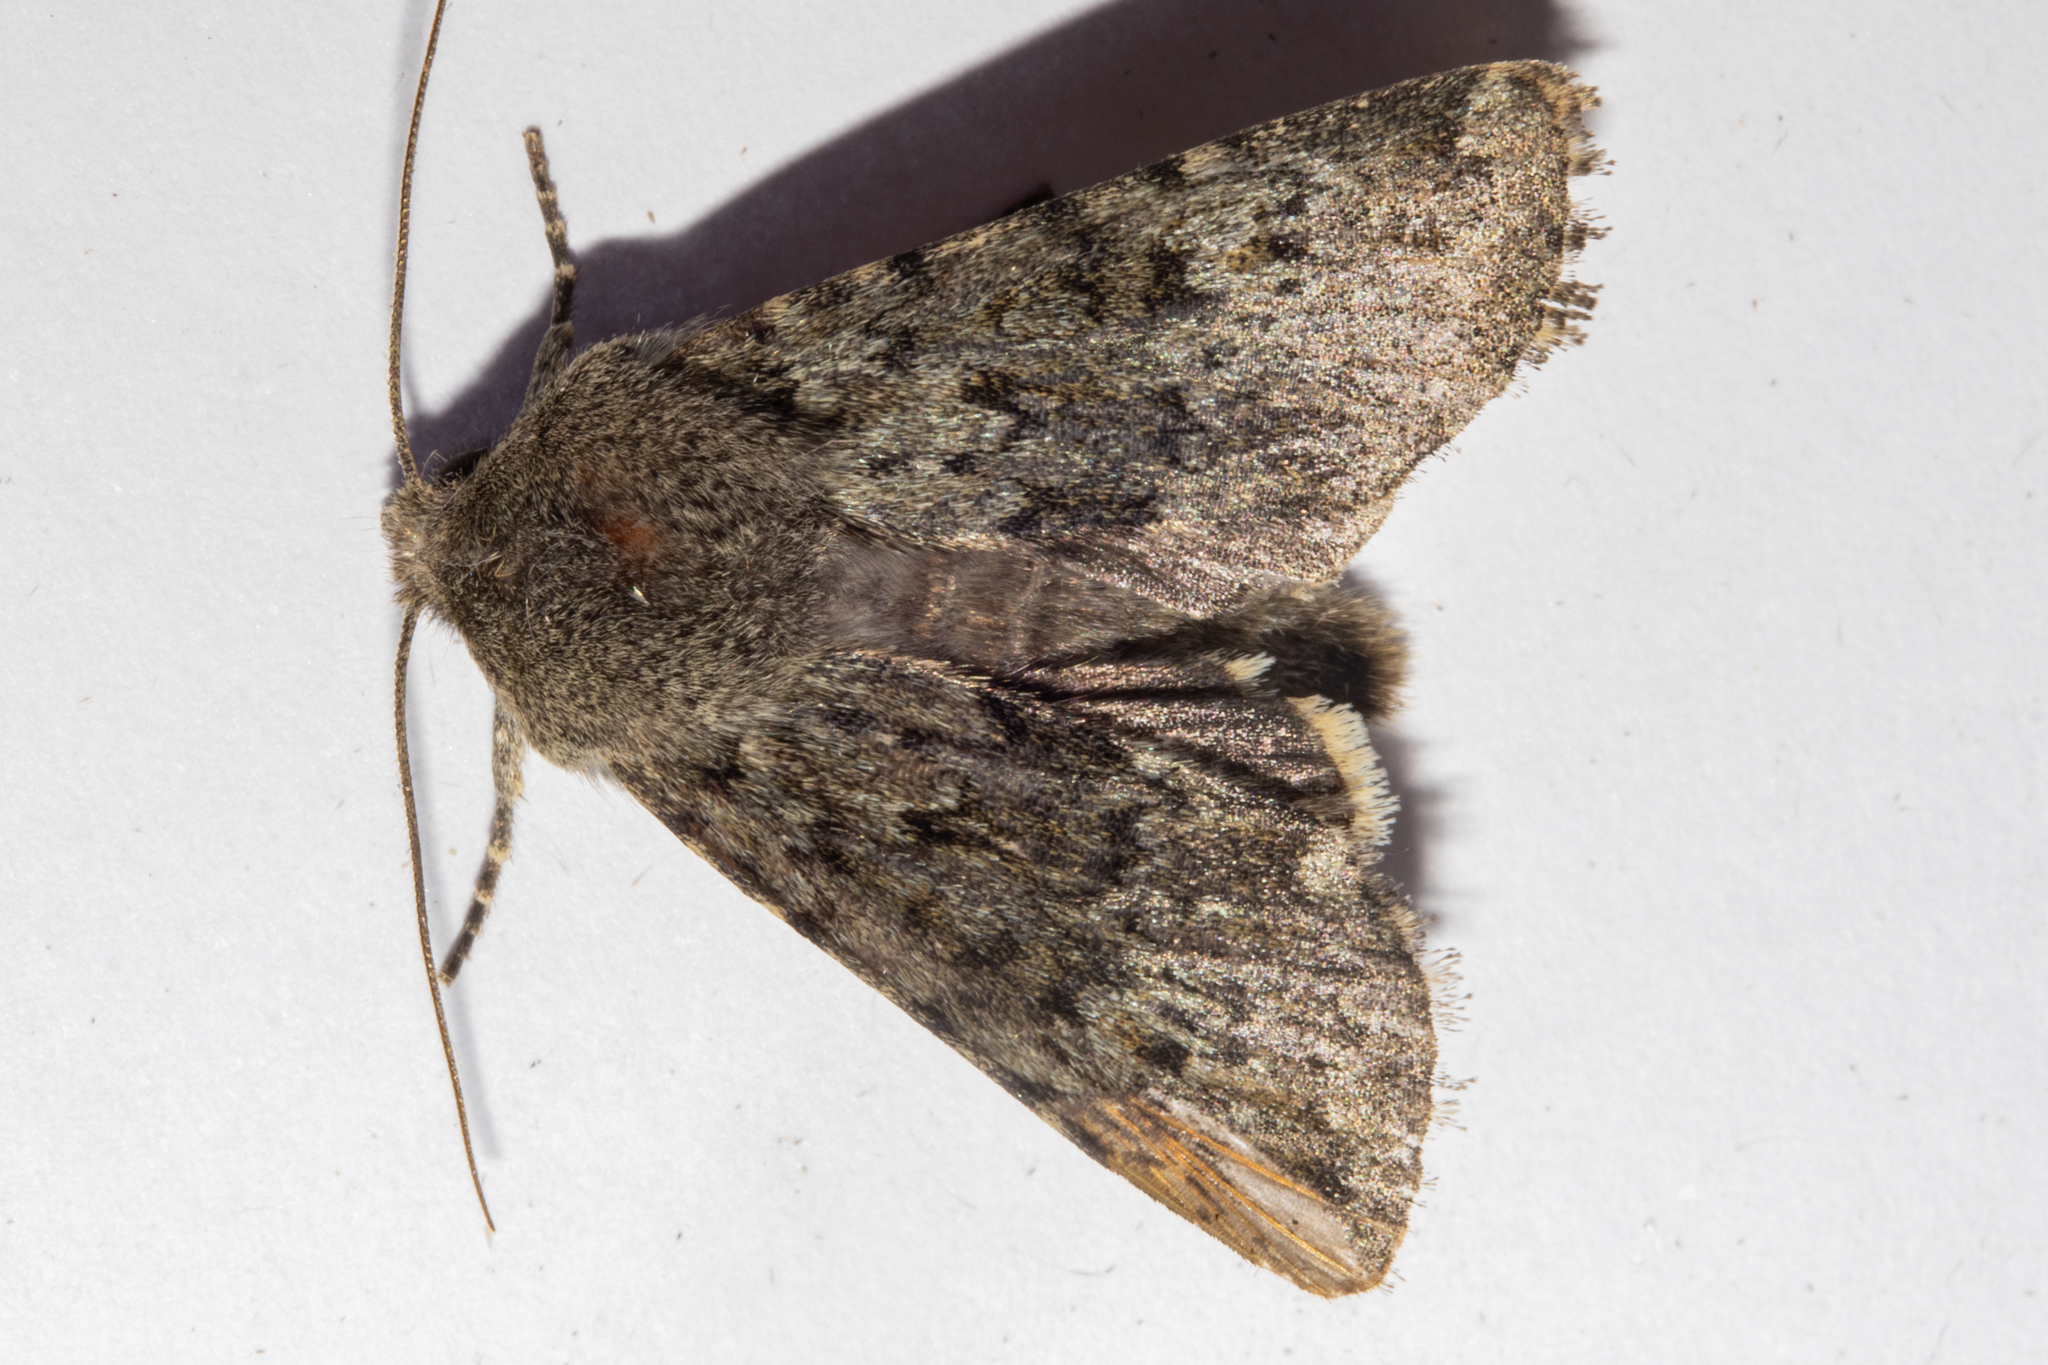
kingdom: Animalia
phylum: Arthropoda
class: Insecta
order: Lepidoptera
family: Noctuidae
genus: Ichneutica
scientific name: Ichneutica moderata
